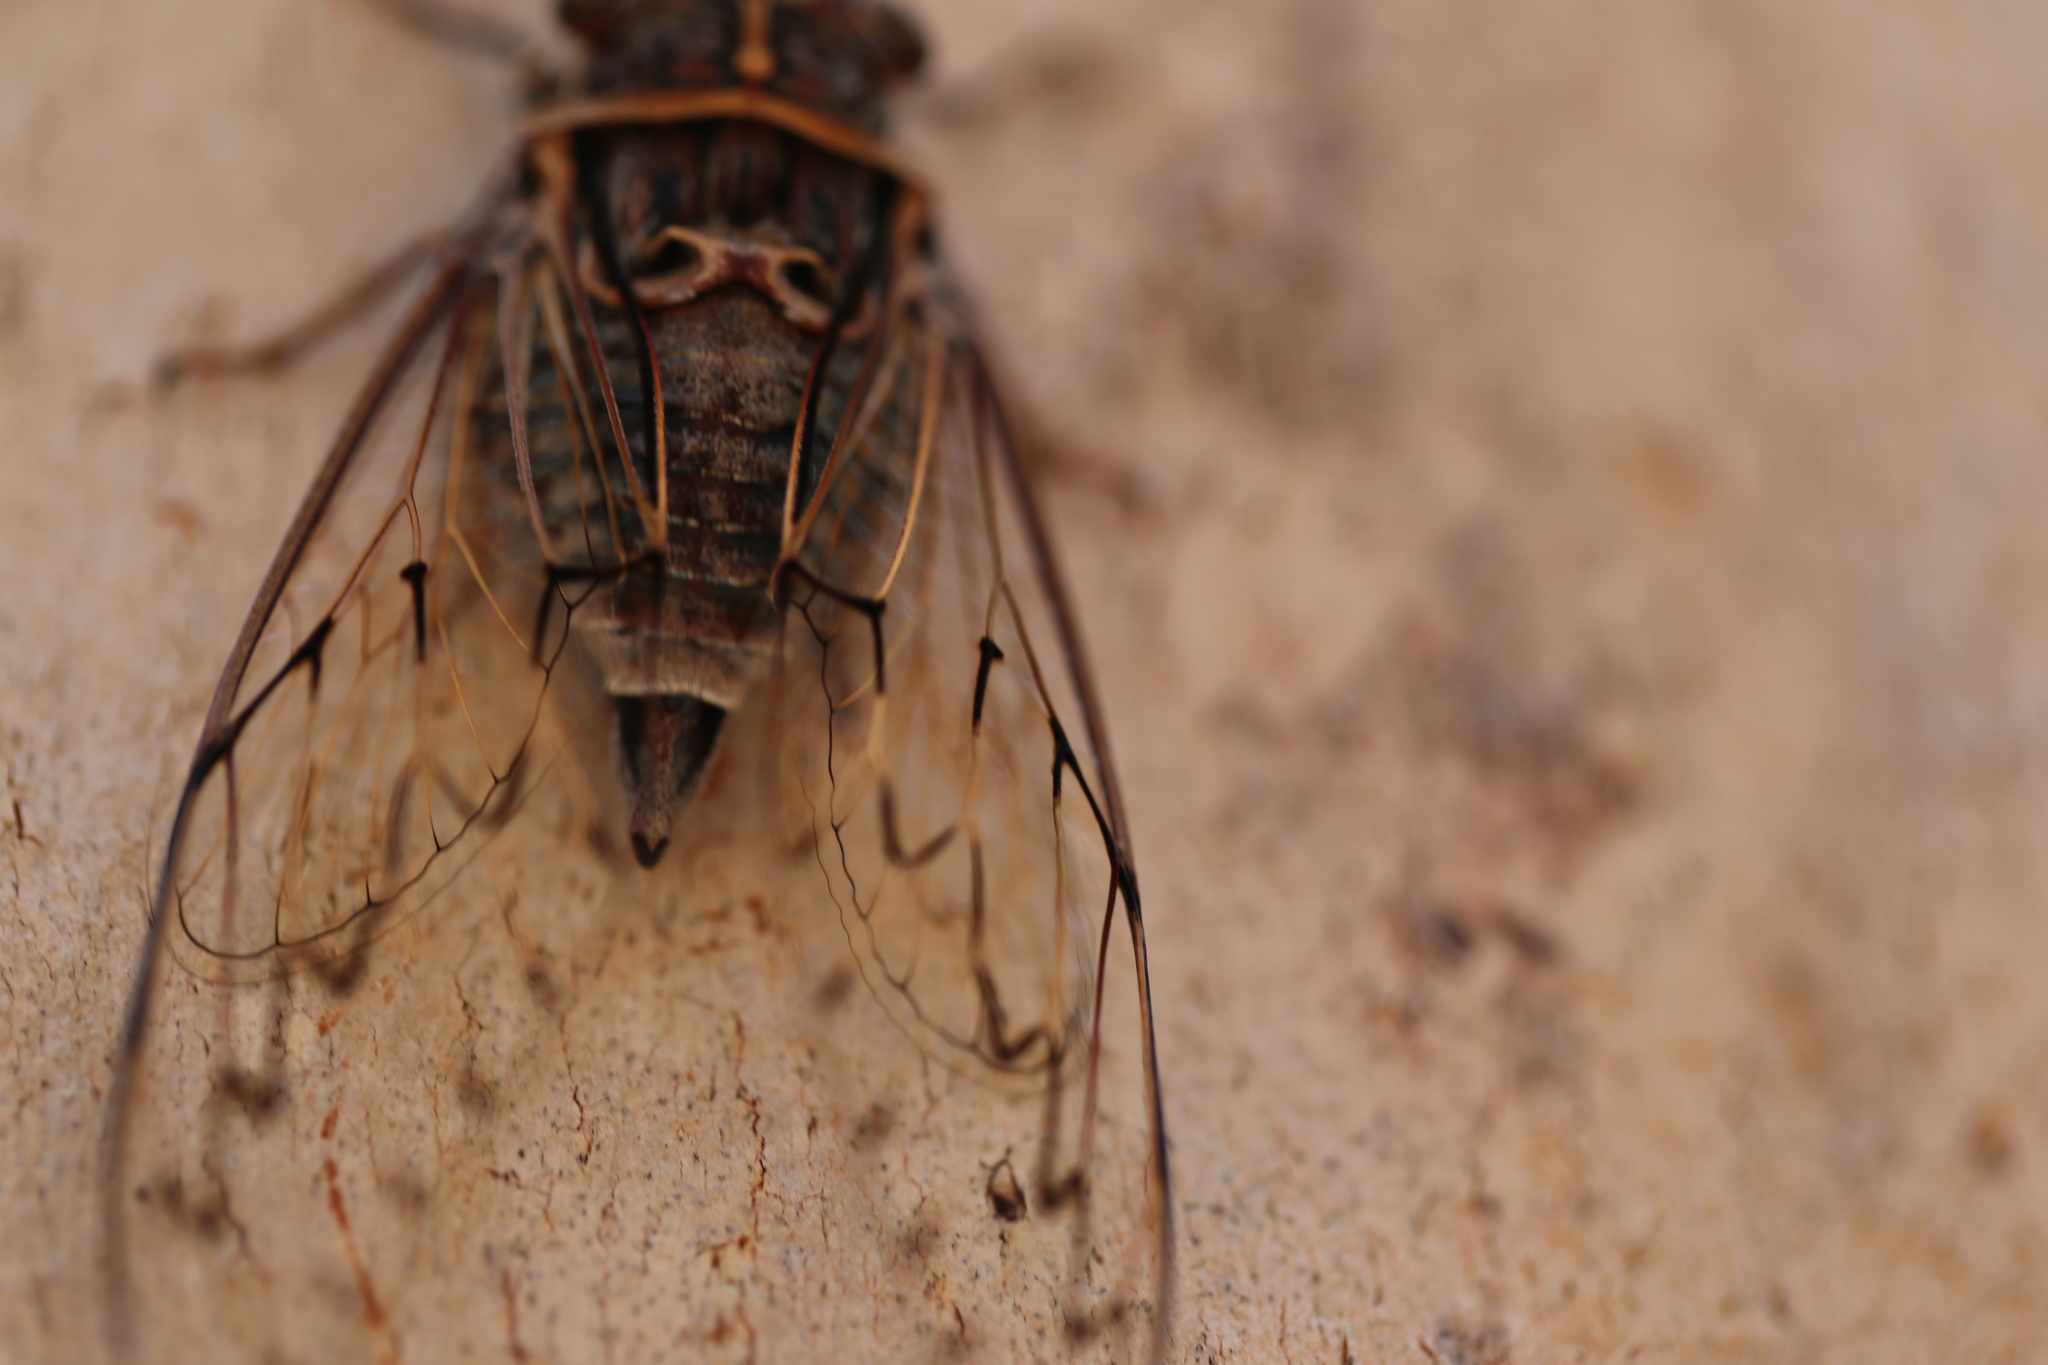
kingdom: Animalia
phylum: Arthropoda
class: Insecta
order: Hemiptera
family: Cicadidae
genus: Henicopsaltria
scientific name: Henicopsaltria eydouxii
